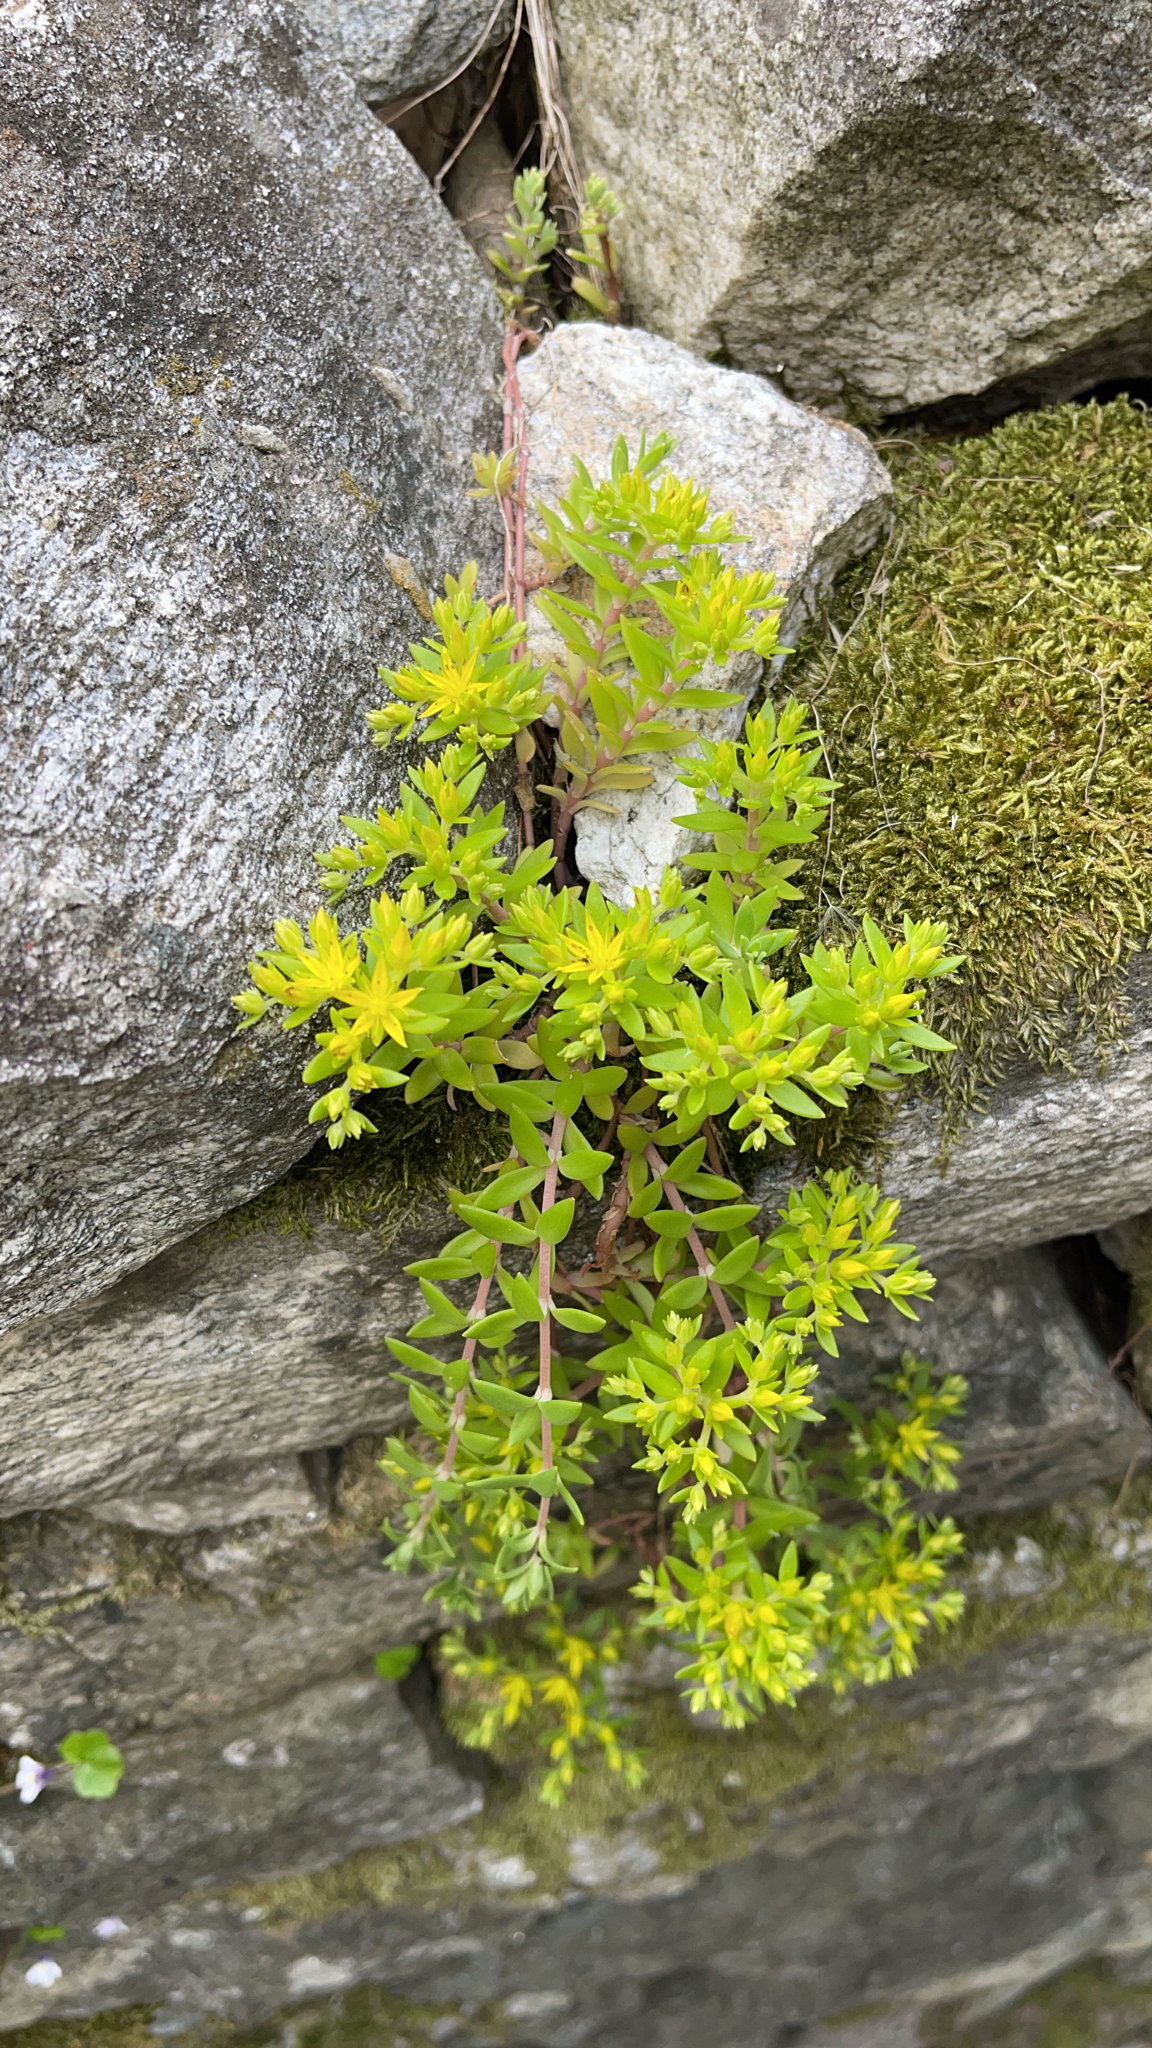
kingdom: Plantae
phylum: Tracheophyta
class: Magnoliopsida
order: Saxifragales
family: Crassulaceae
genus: Sedum
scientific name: Sedum sarmentosum
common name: Stringy stonecrop
